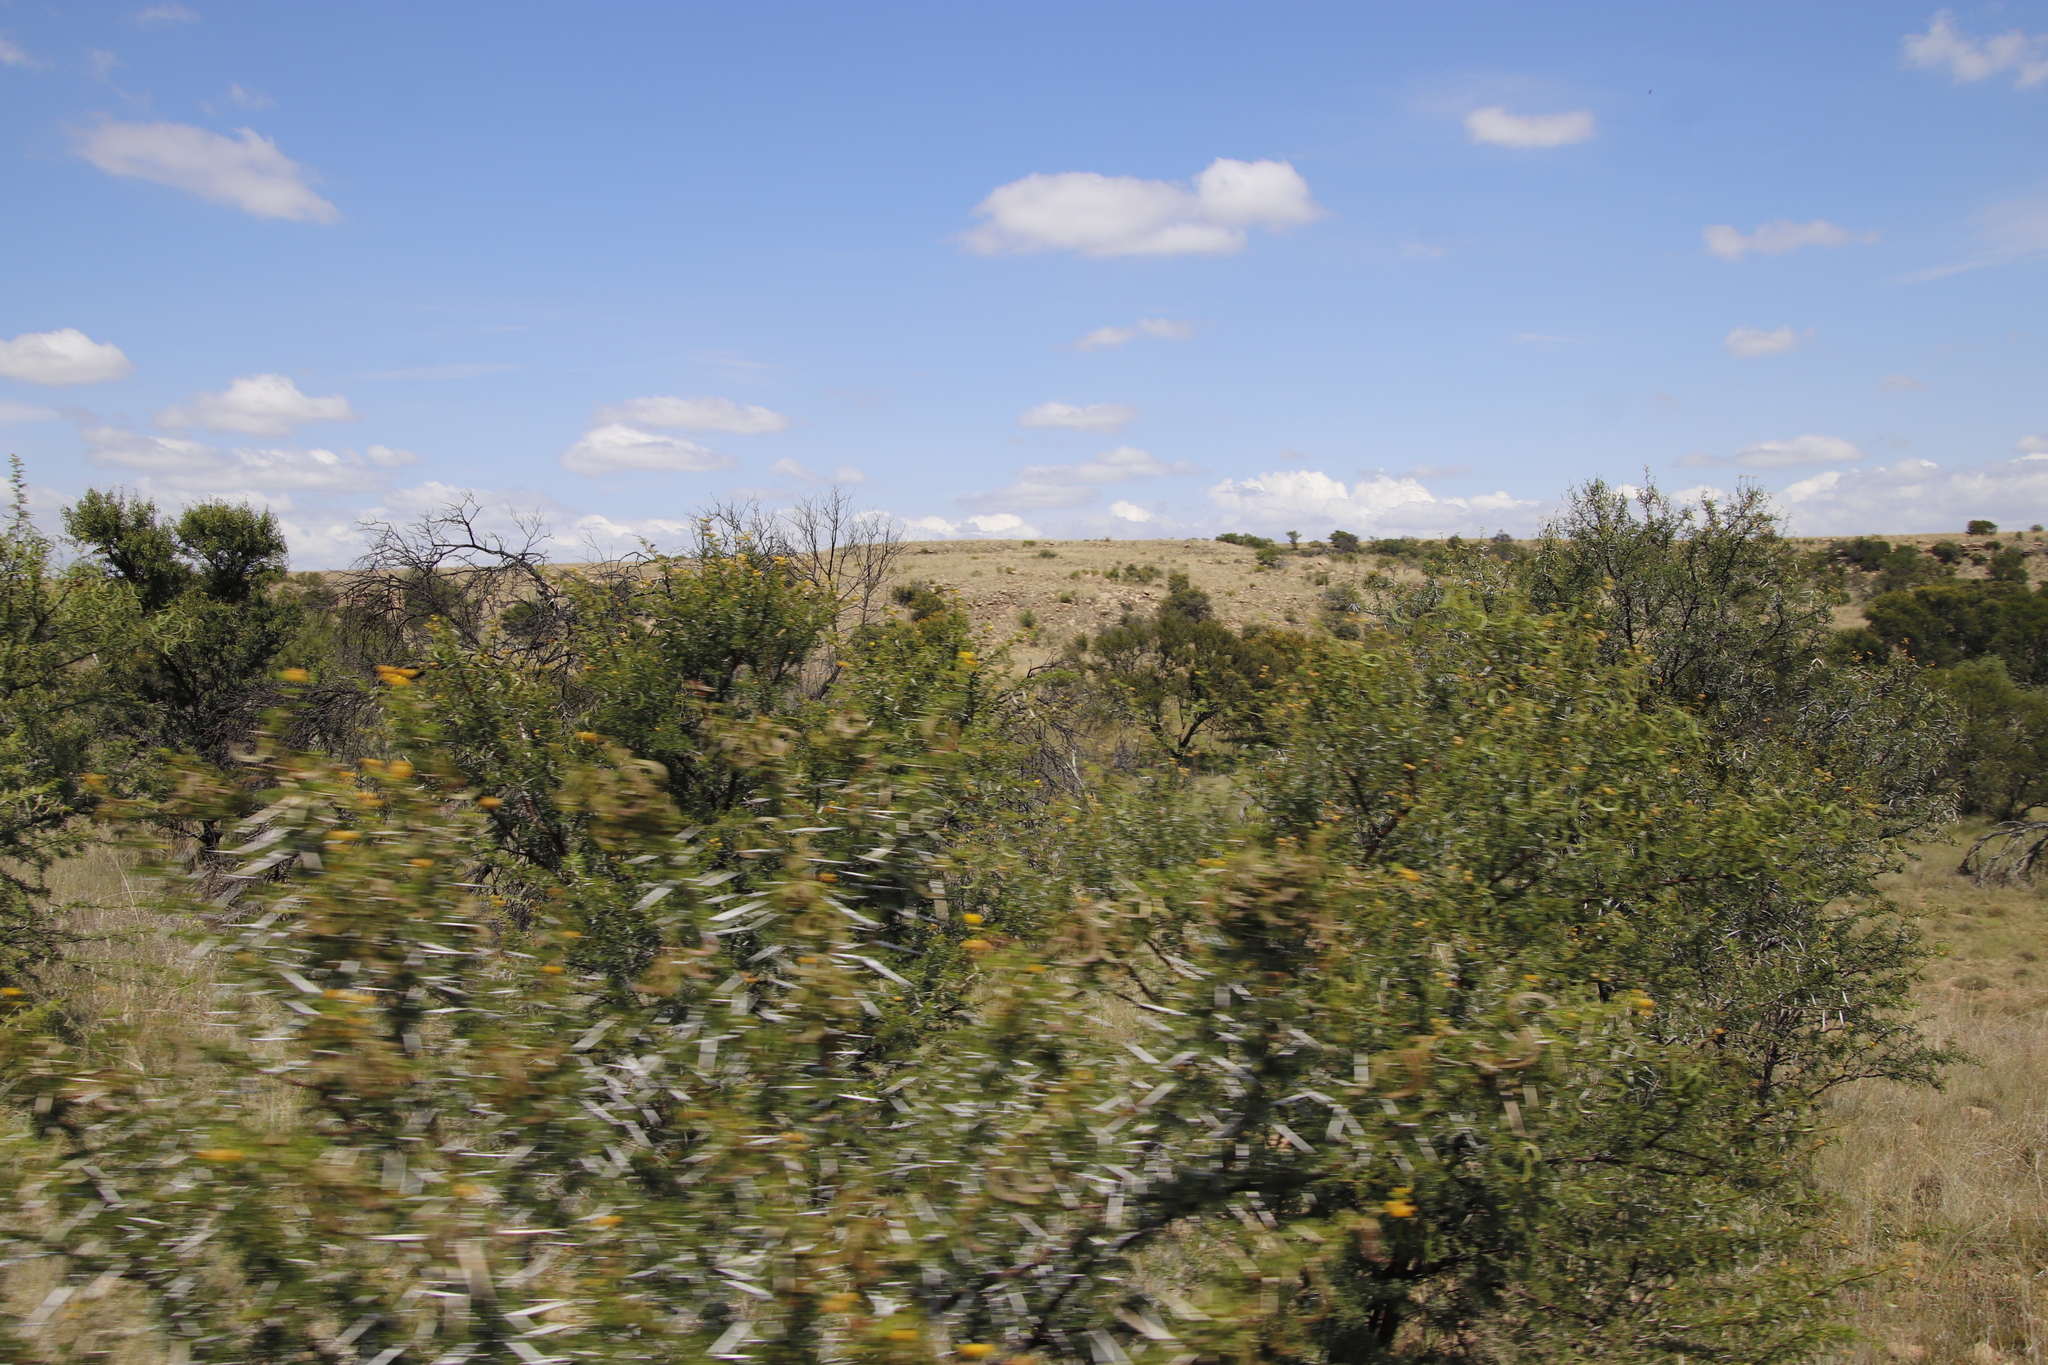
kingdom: Plantae
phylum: Tracheophyta
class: Magnoliopsida
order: Fabales
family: Fabaceae
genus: Vachellia
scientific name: Vachellia karroo
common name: Sweet thorn
